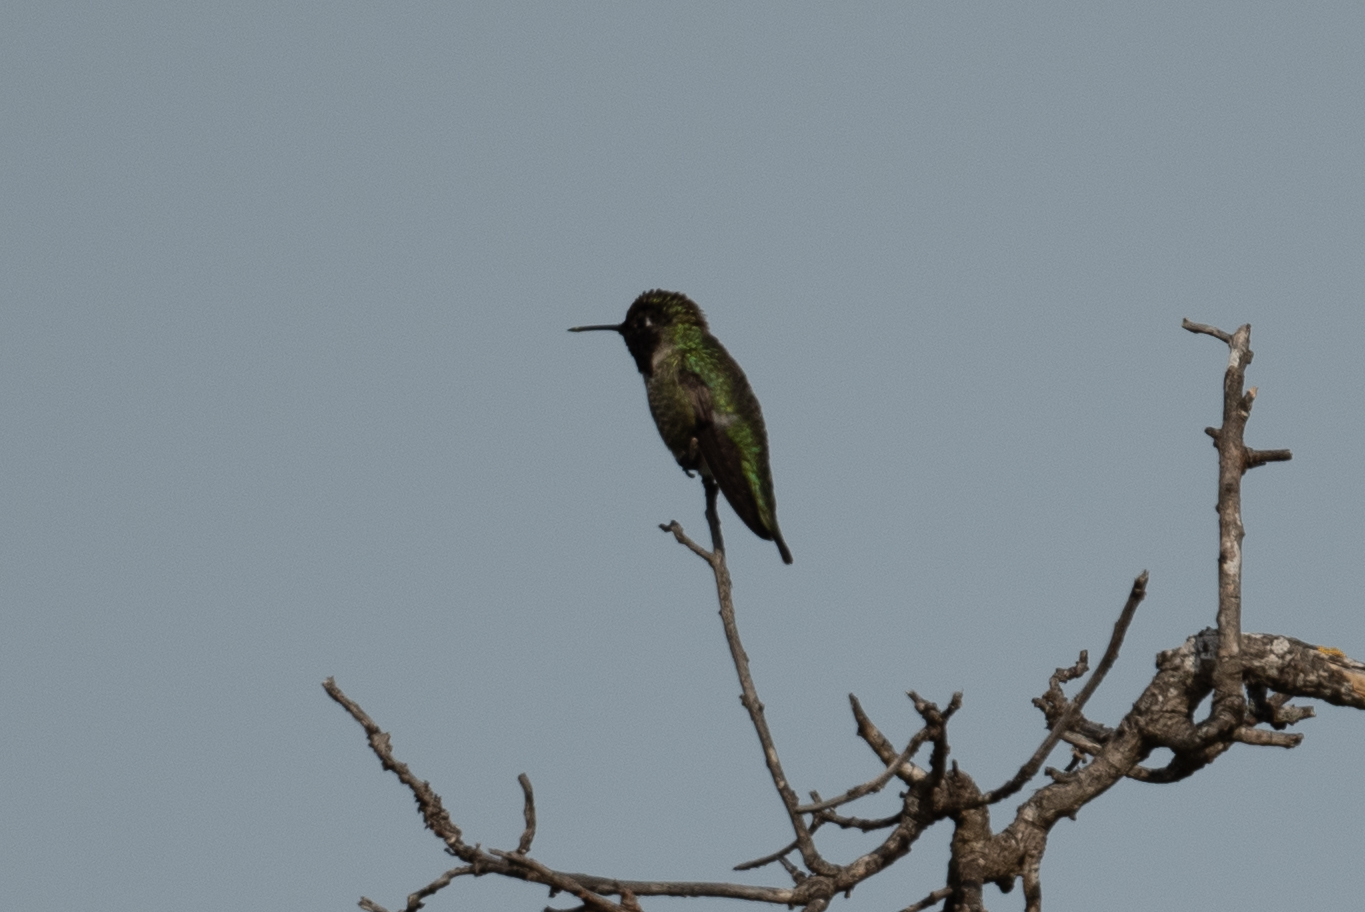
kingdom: Animalia
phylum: Chordata
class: Aves
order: Apodiformes
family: Trochilidae
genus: Calypte
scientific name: Calypte anna
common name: Anna's hummingbird
